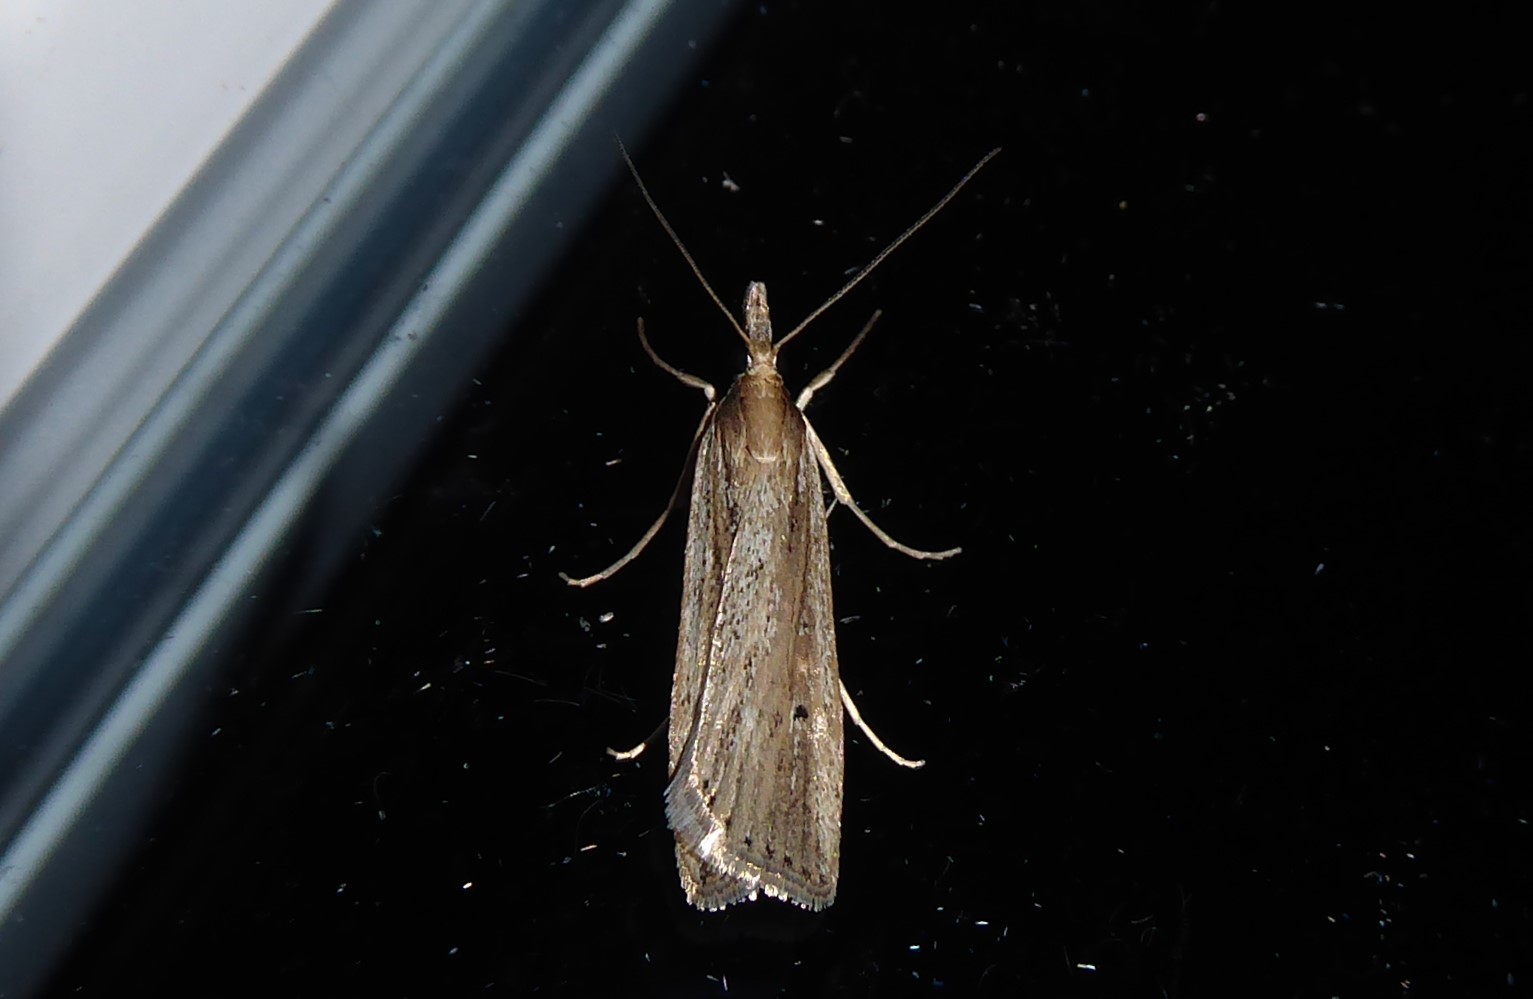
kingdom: Animalia
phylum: Arthropoda
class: Insecta
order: Lepidoptera
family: Crambidae
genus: Eudonia
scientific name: Eudonia sabulosella
